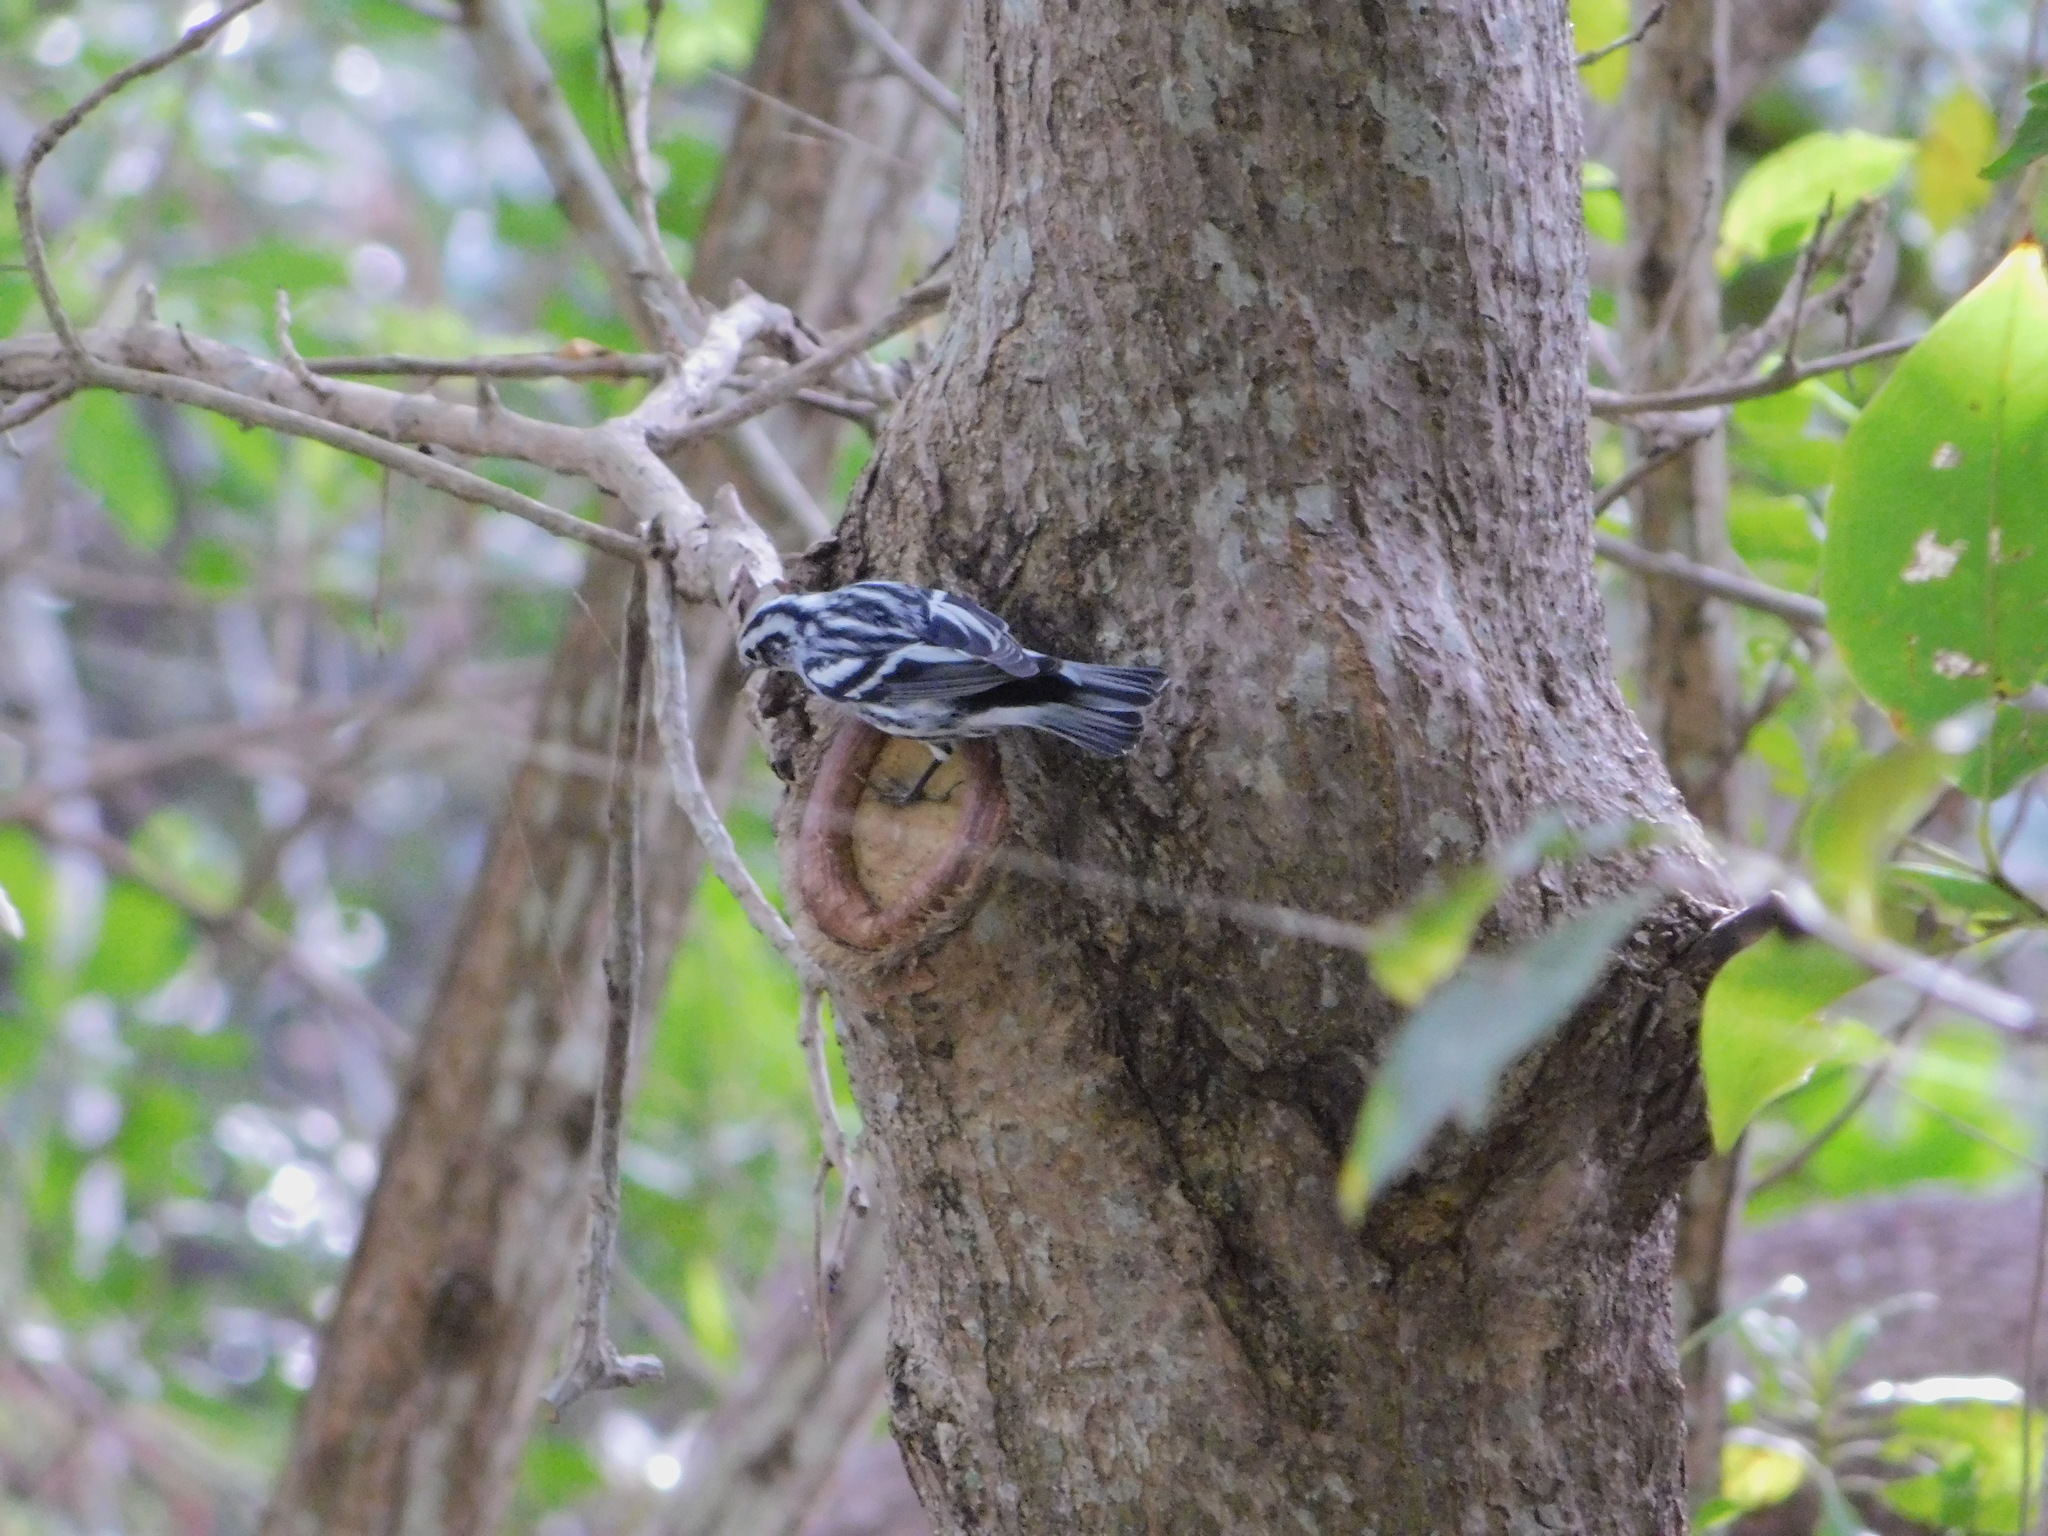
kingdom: Animalia
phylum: Chordata
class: Aves
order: Passeriformes
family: Parulidae
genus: Mniotilta
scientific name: Mniotilta varia
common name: Black-and-white warbler
